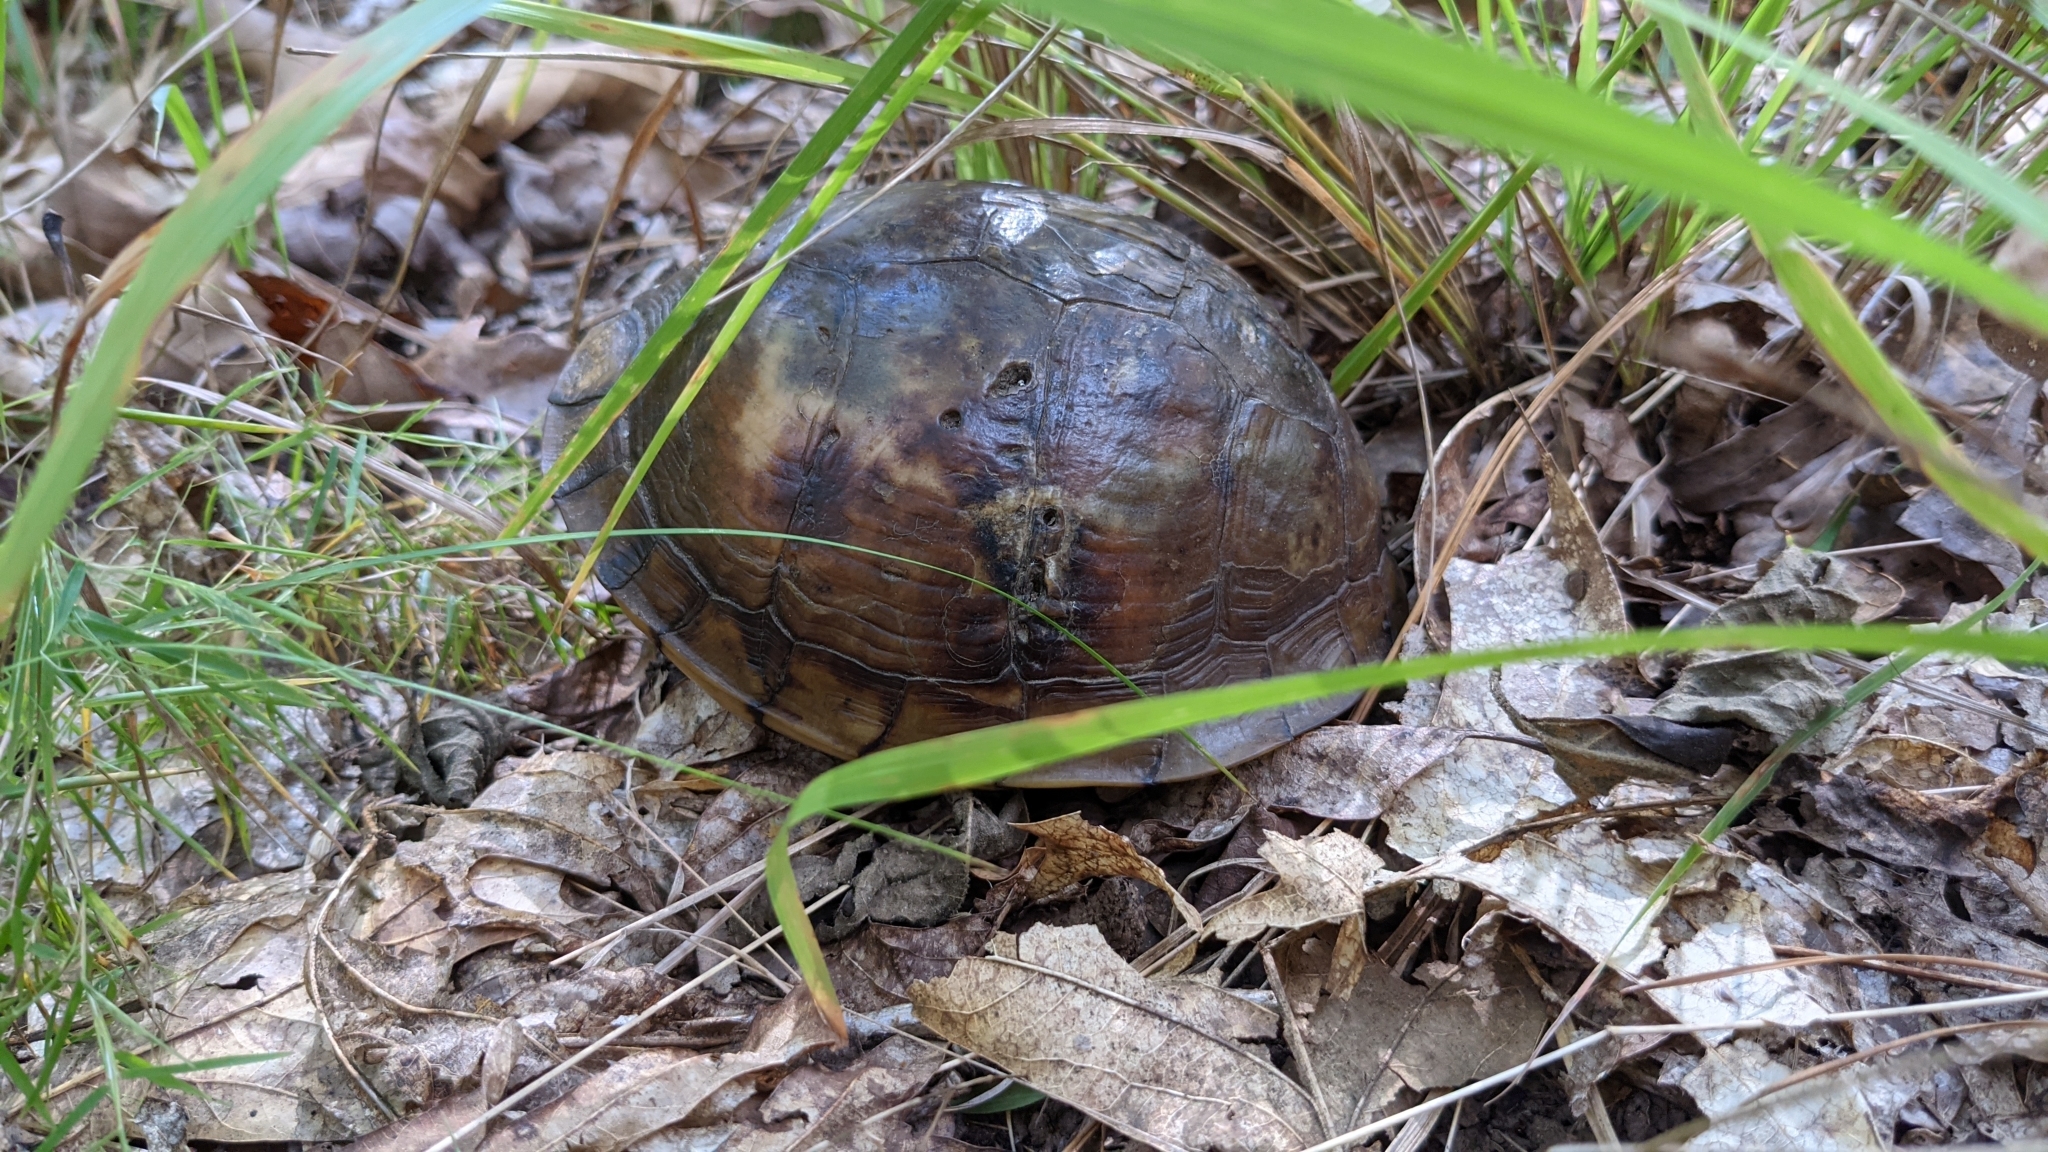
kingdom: Animalia
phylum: Chordata
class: Testudines
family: Emydidae
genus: Terrapene
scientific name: Terrapene carolina
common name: Common box turtle
